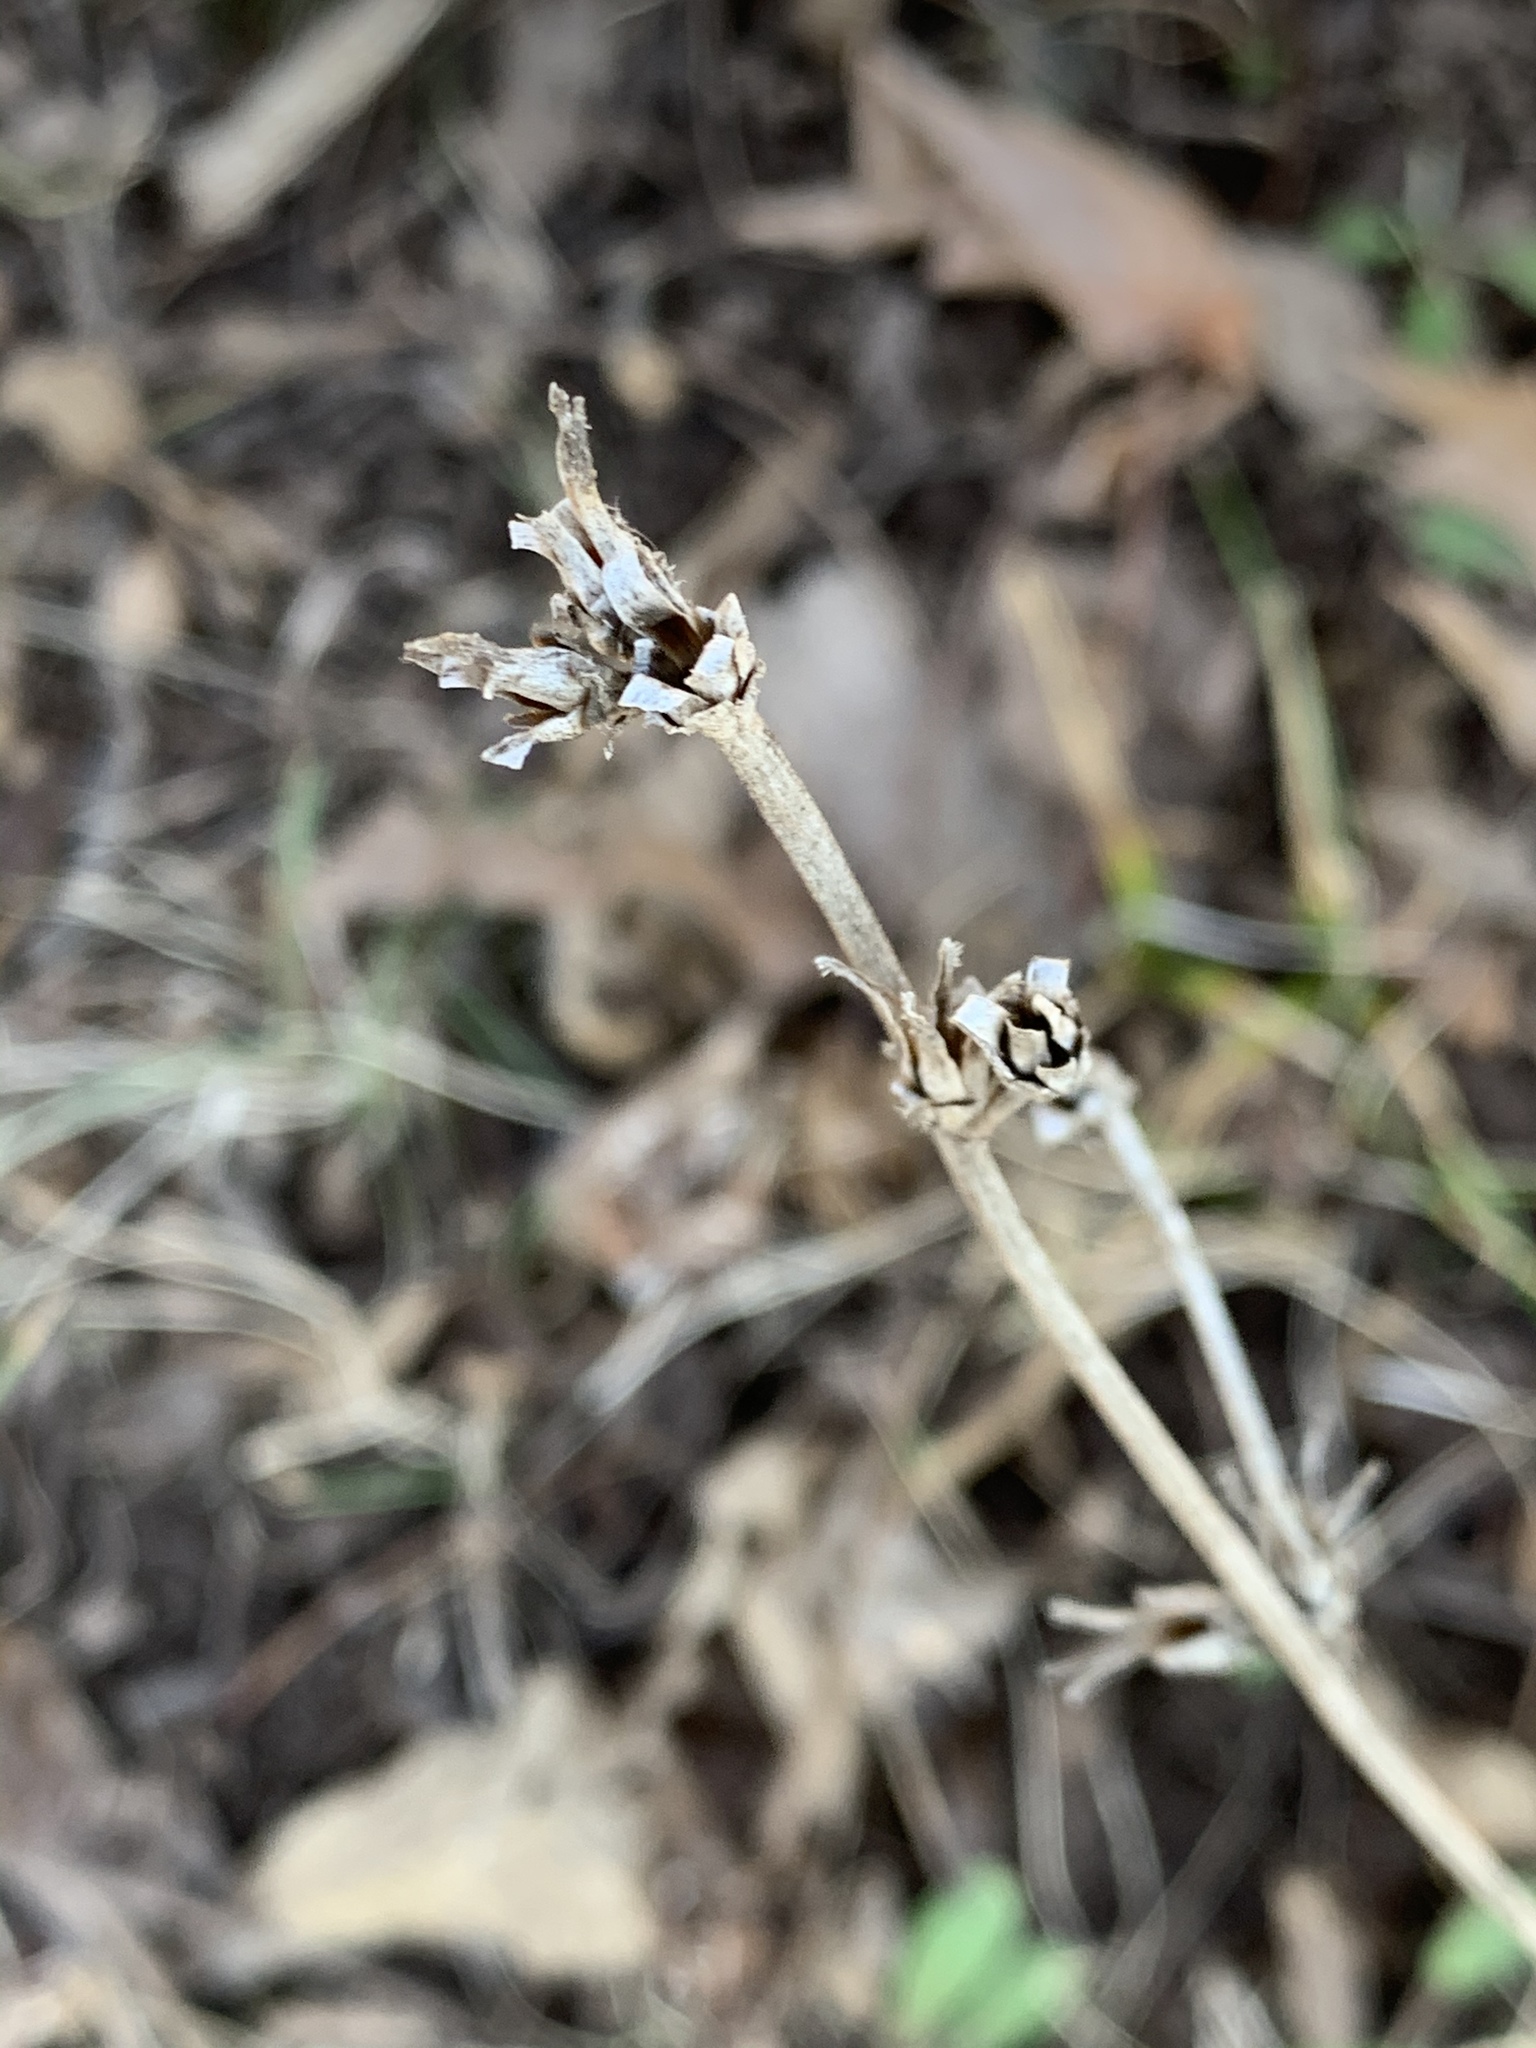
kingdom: Plantae
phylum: Tracheophyta
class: Magnoliopsida
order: Asterales
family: Asteraceae
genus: Cichorium
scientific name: Cichorium intybus
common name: Chicory
